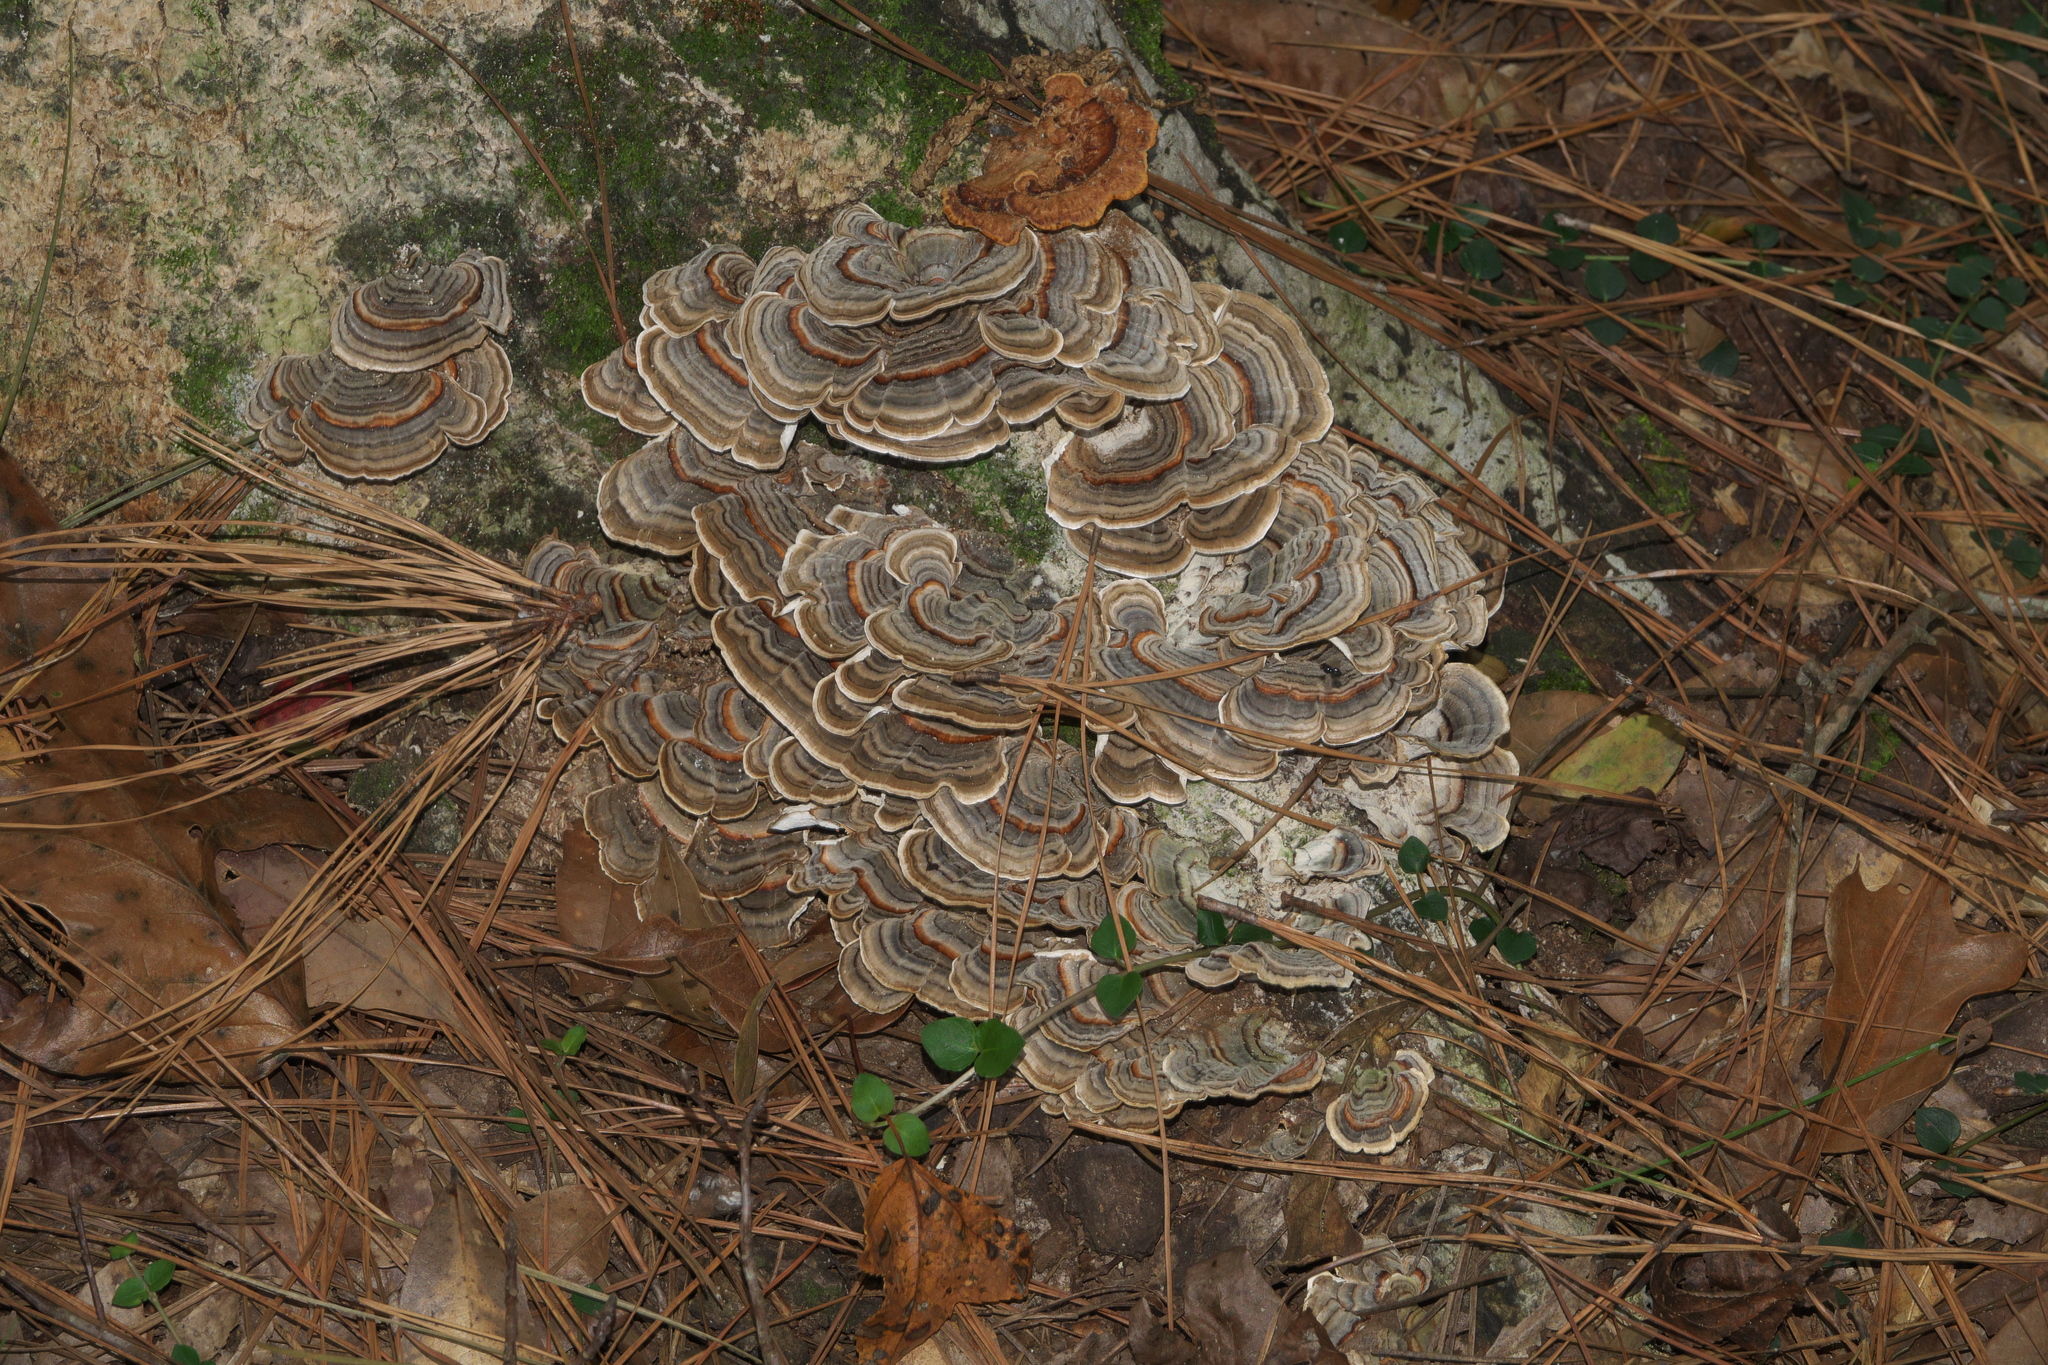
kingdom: Fungi
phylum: Basidiomycota
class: Agaricomycetes
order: Polyporales
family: Polyporaceae
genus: Trametes
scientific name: Trametes versicolor
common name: Turkeytail
